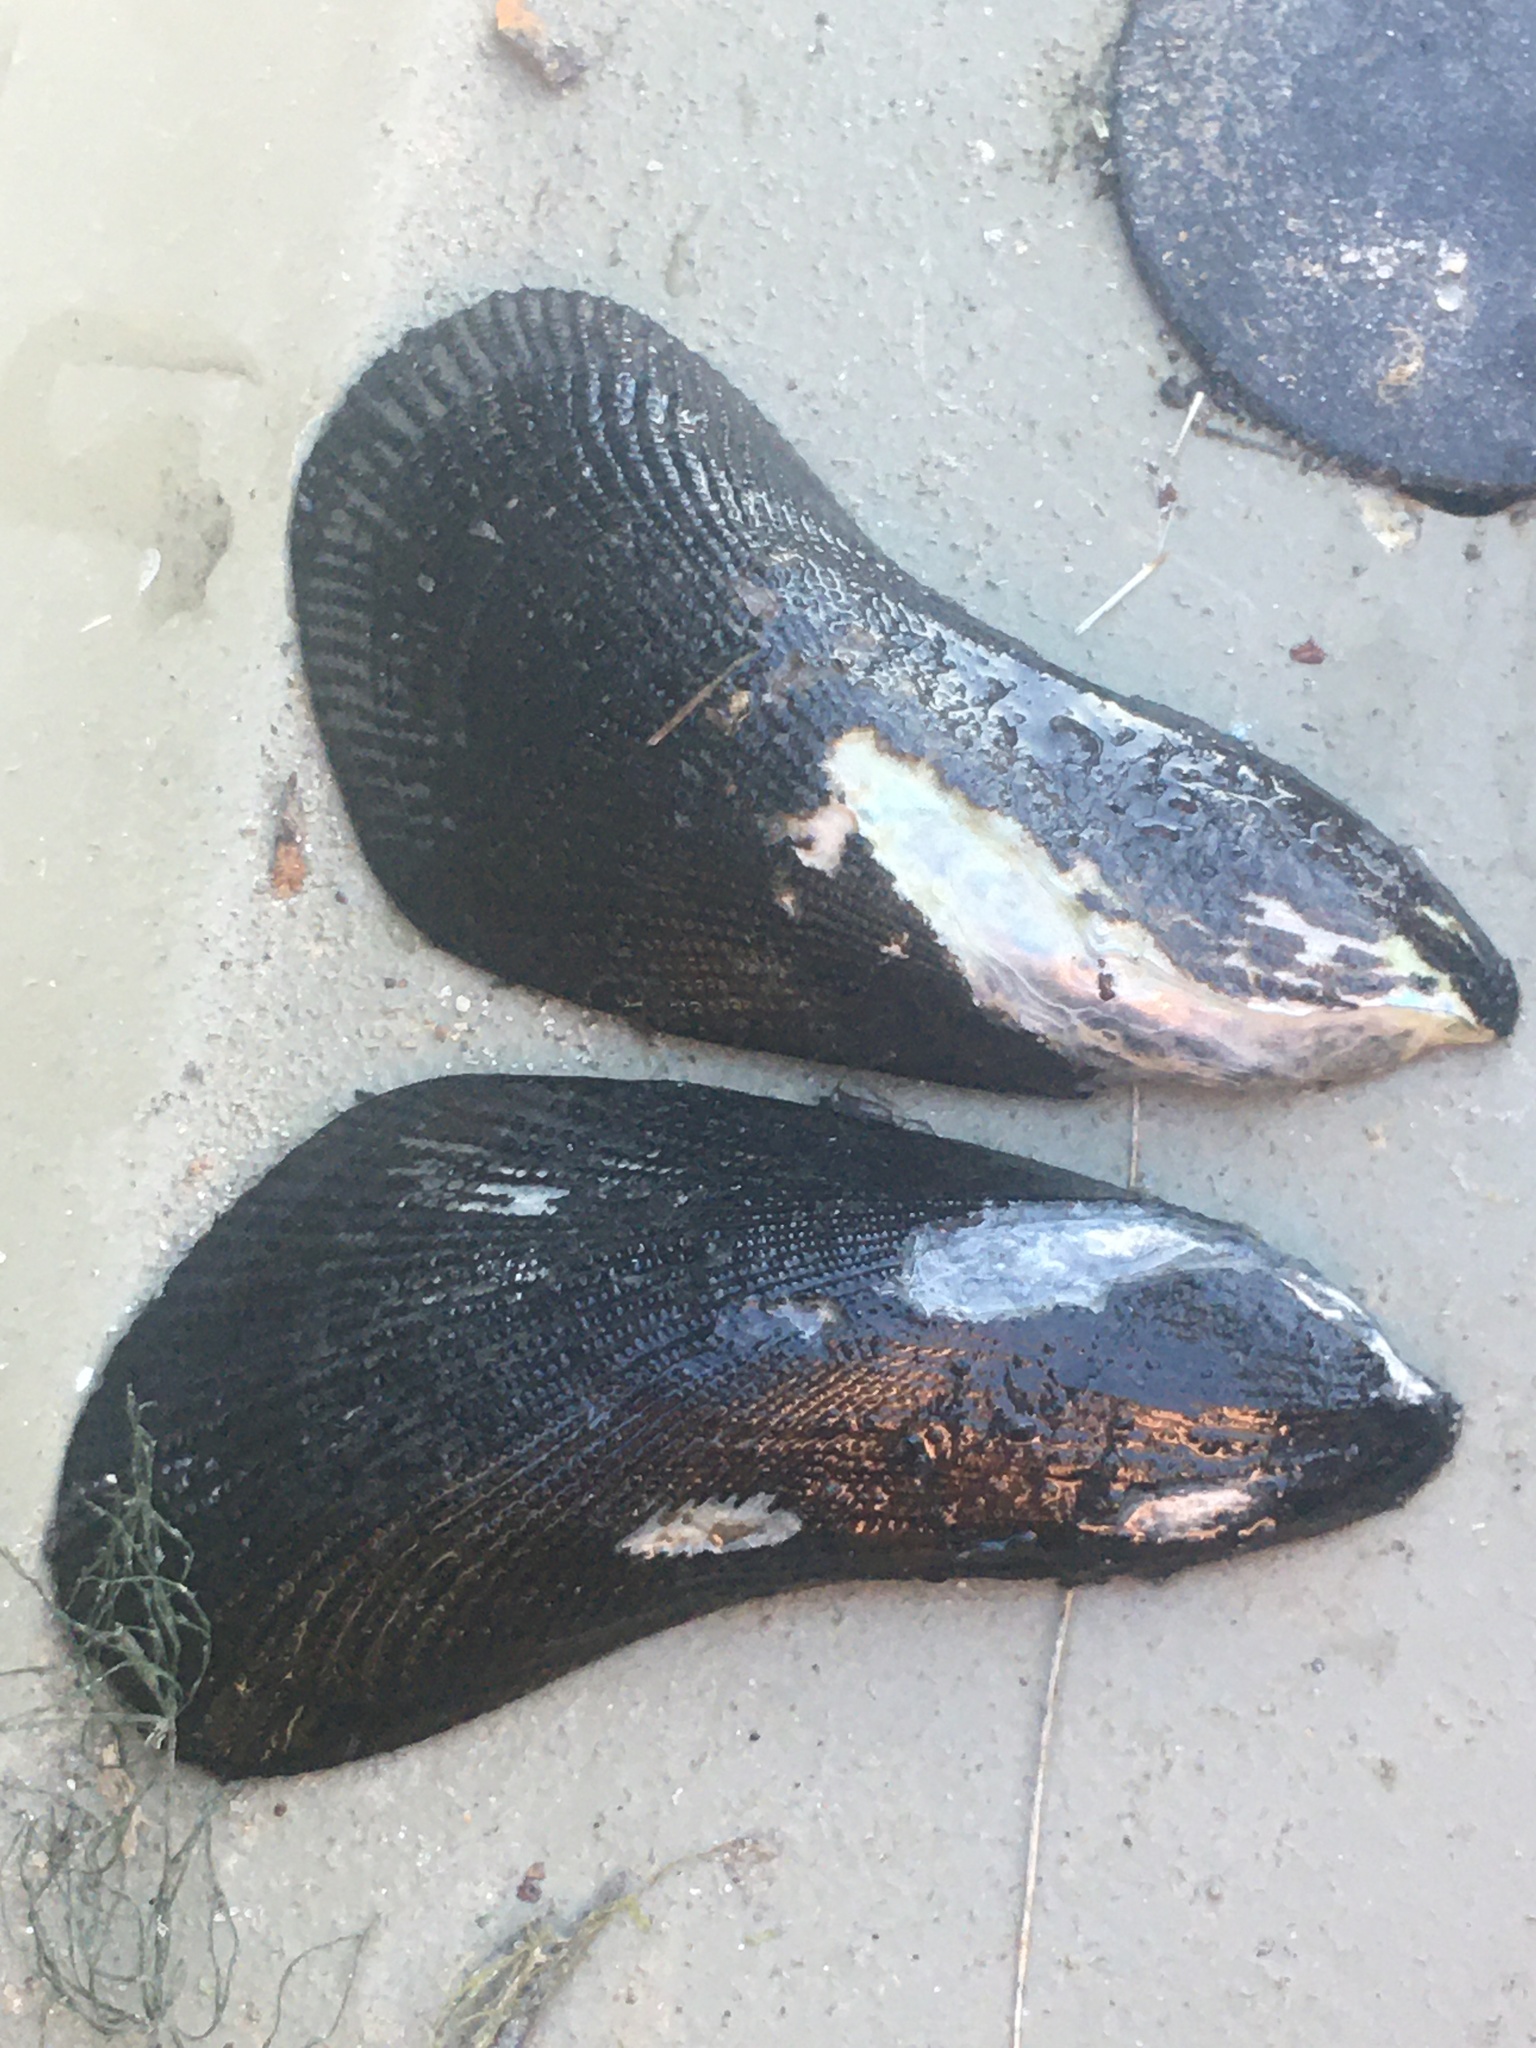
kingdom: Animalia
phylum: Mollusca
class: Bivalvia
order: Mytilida
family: Mytilidae
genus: Geukensia
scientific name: Geukensia granosissima
